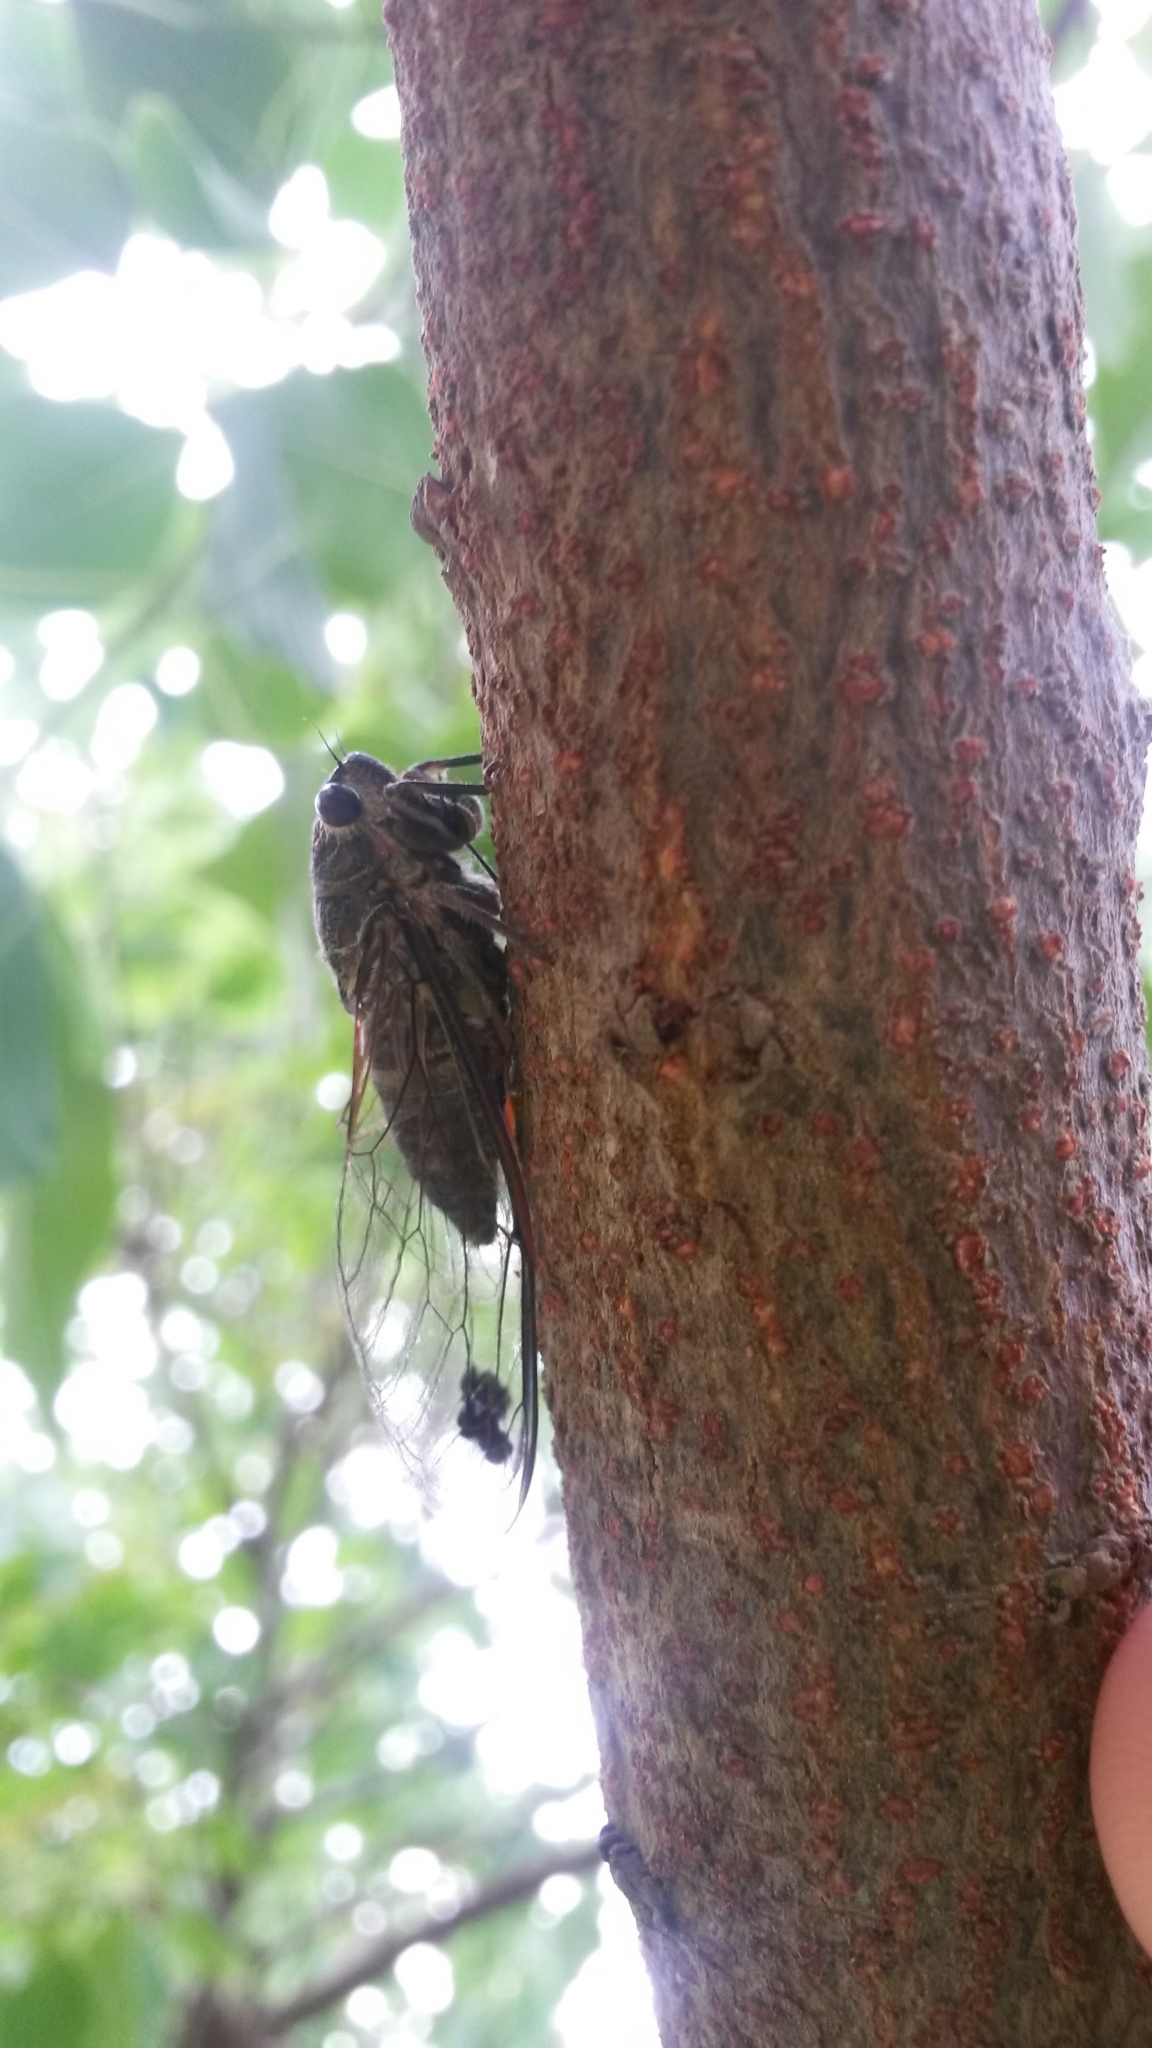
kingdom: Animalia
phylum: Arthropoda
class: Insecta
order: Hemiptera
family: Cicadidae
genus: Galanga
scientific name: Galanga labeculata
